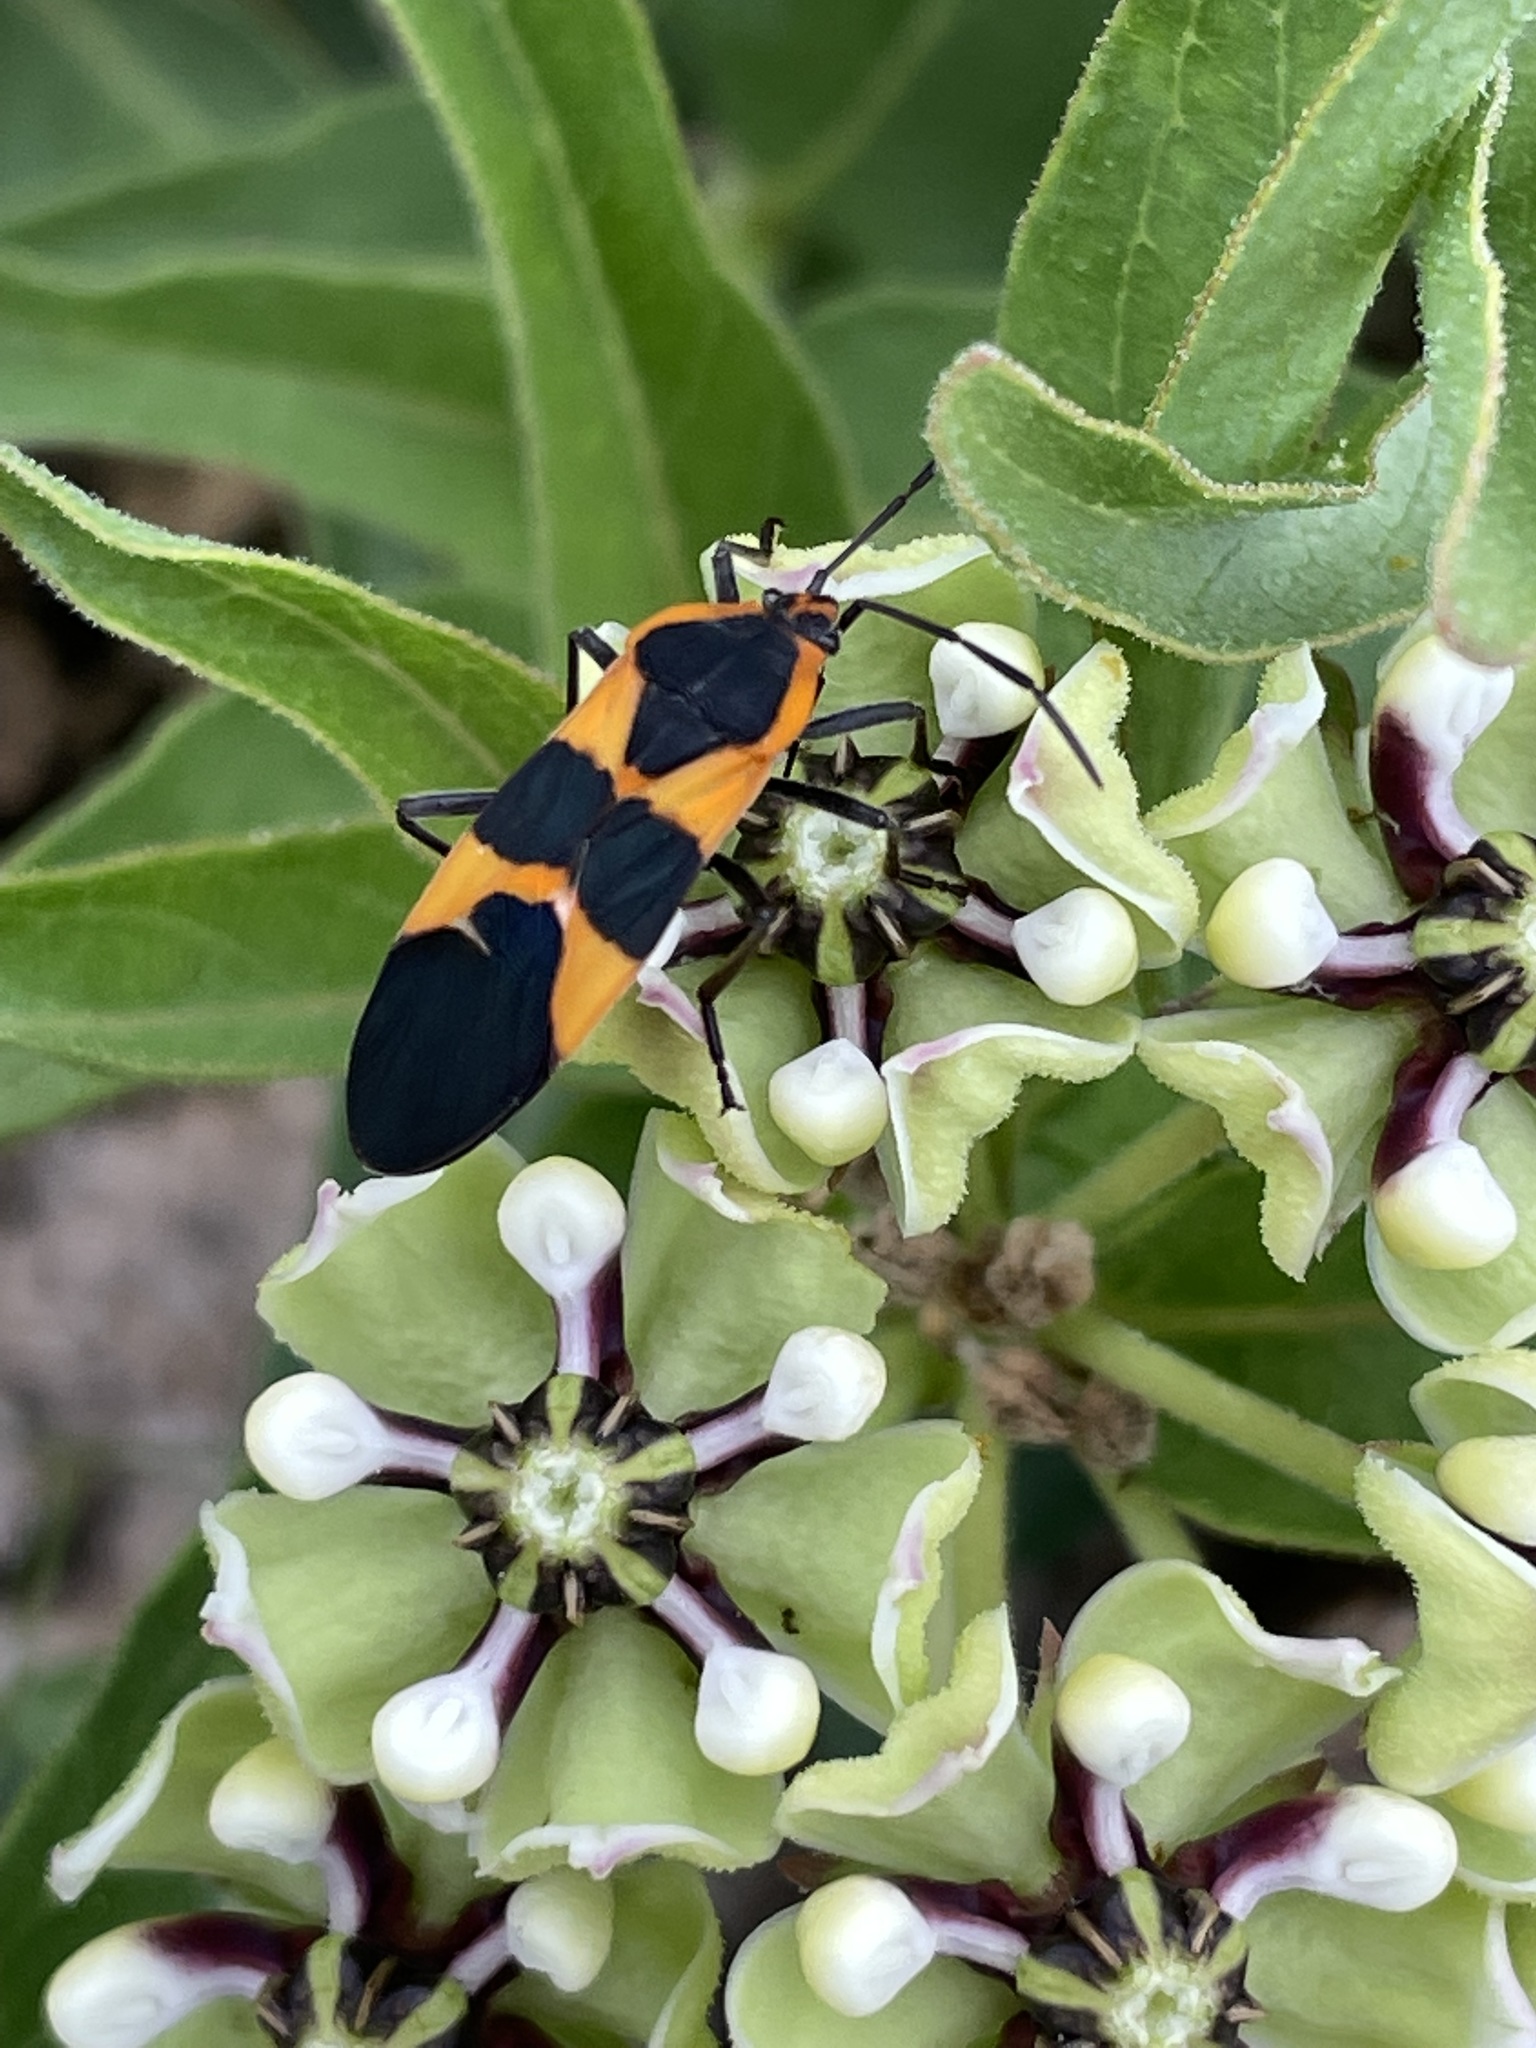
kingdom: Animalia
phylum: Arthropoda
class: Insecta
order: Hemiptera
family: Lygaeidae
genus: Oncopeltus
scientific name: Oncopeltus fasciatus
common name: Large milkweed bug
